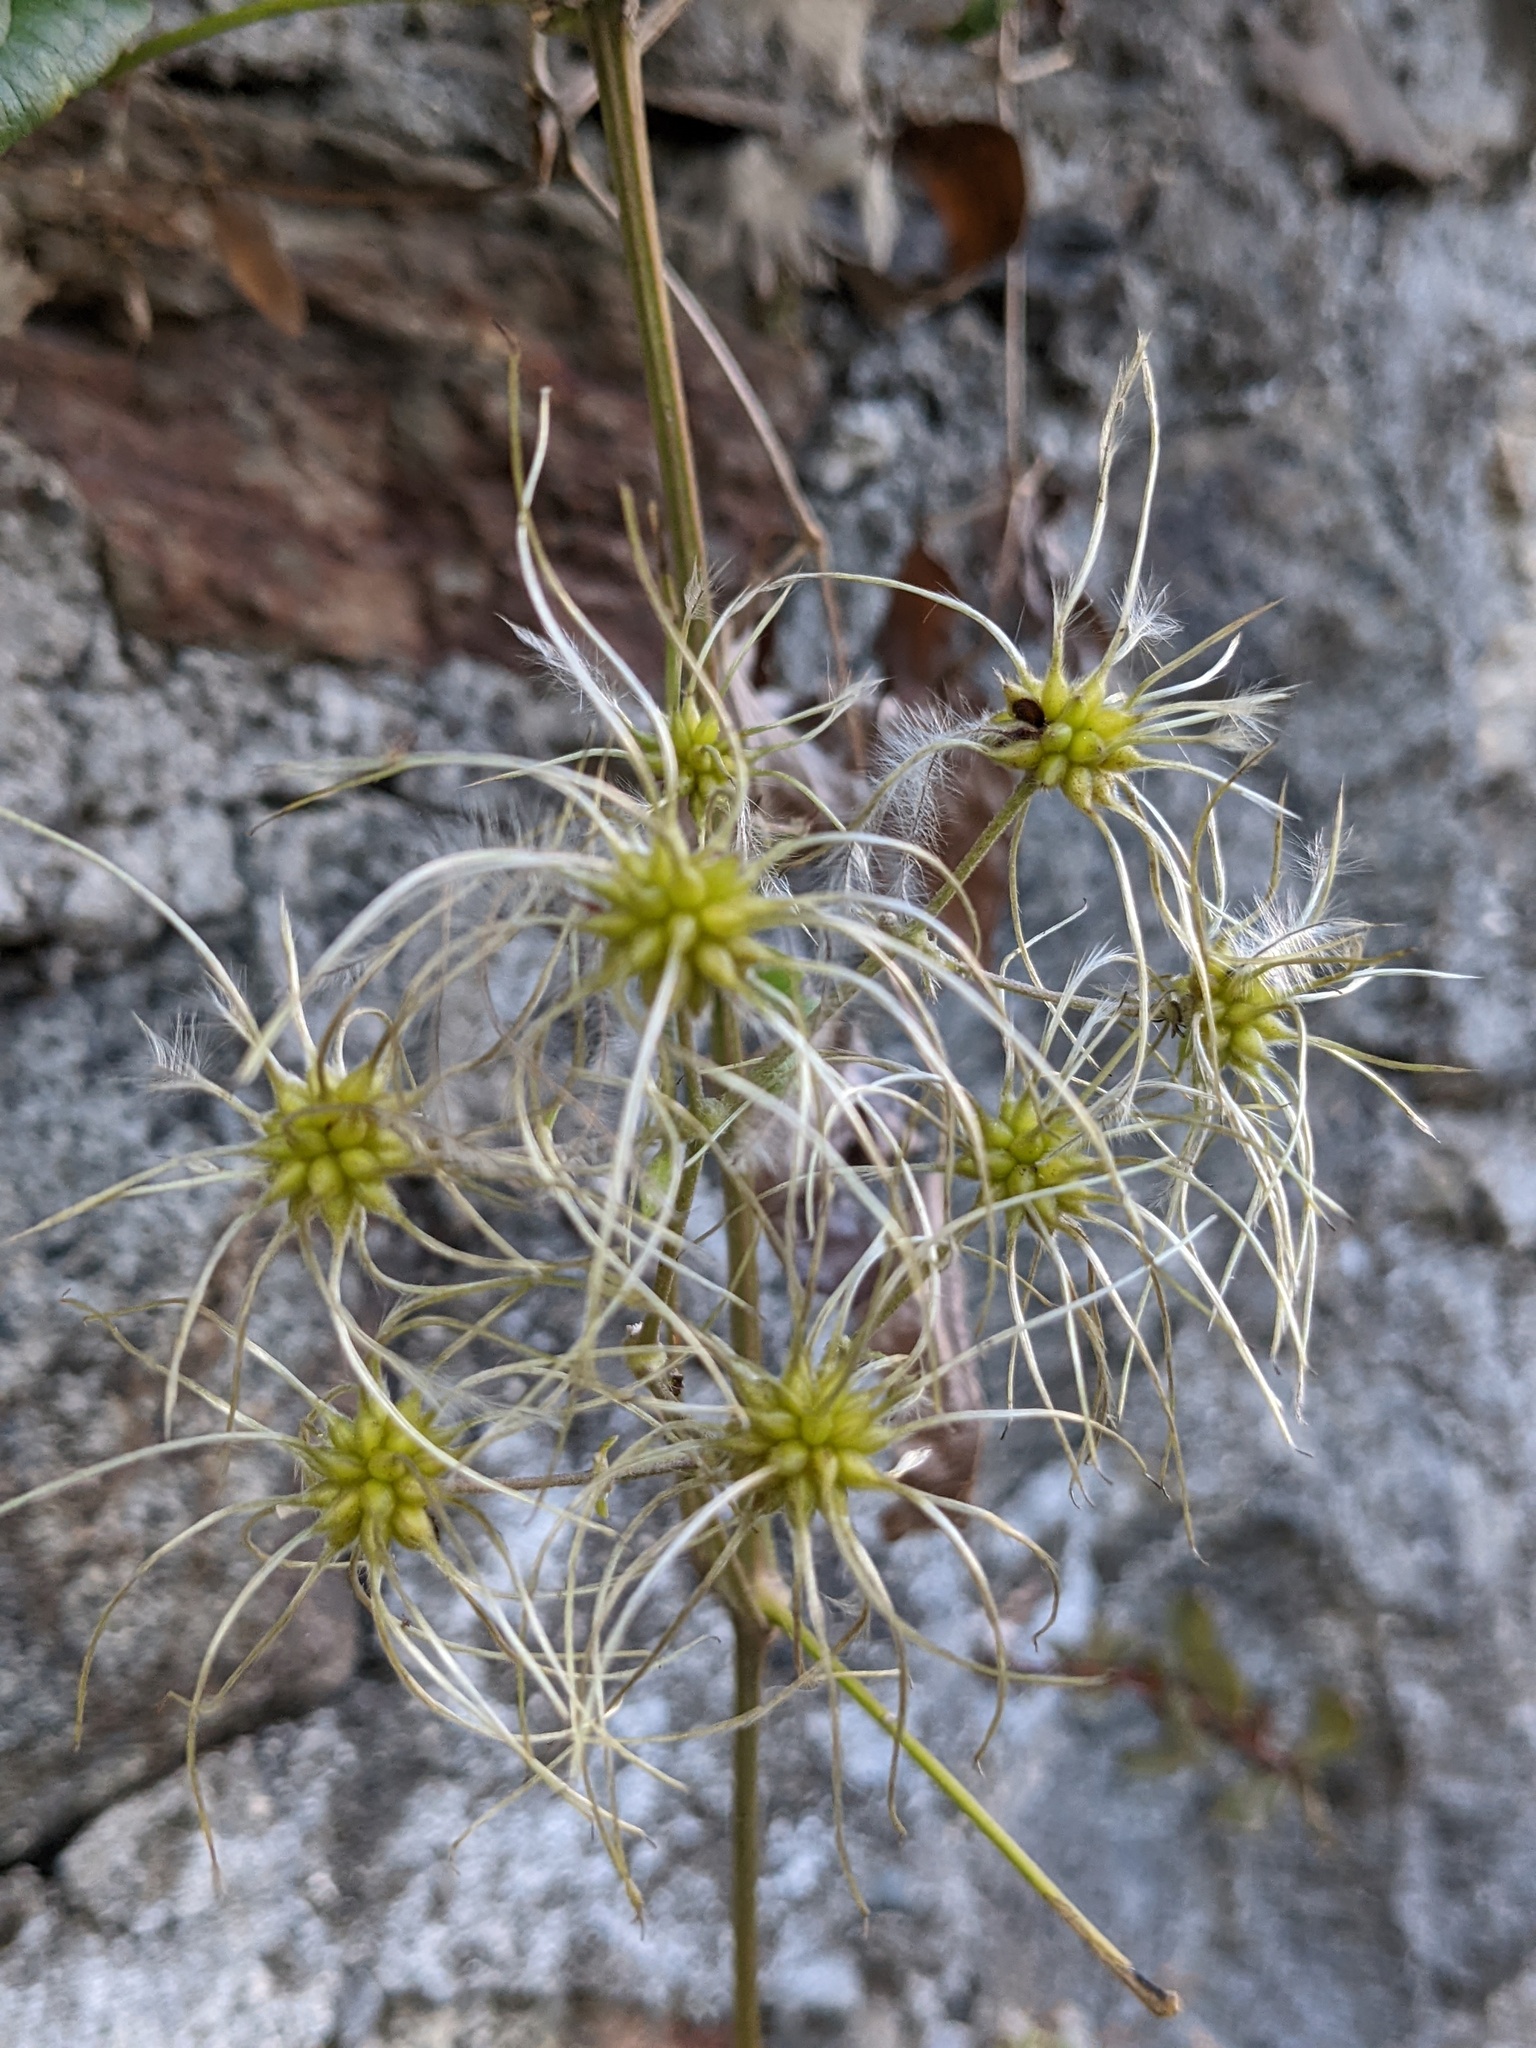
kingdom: Plantae
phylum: Tracheophyta
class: Magnoliopsida
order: Ranunculales
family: Ranunculaceae
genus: Clematis
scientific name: Clematis vitalba
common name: Evergreen clematis
